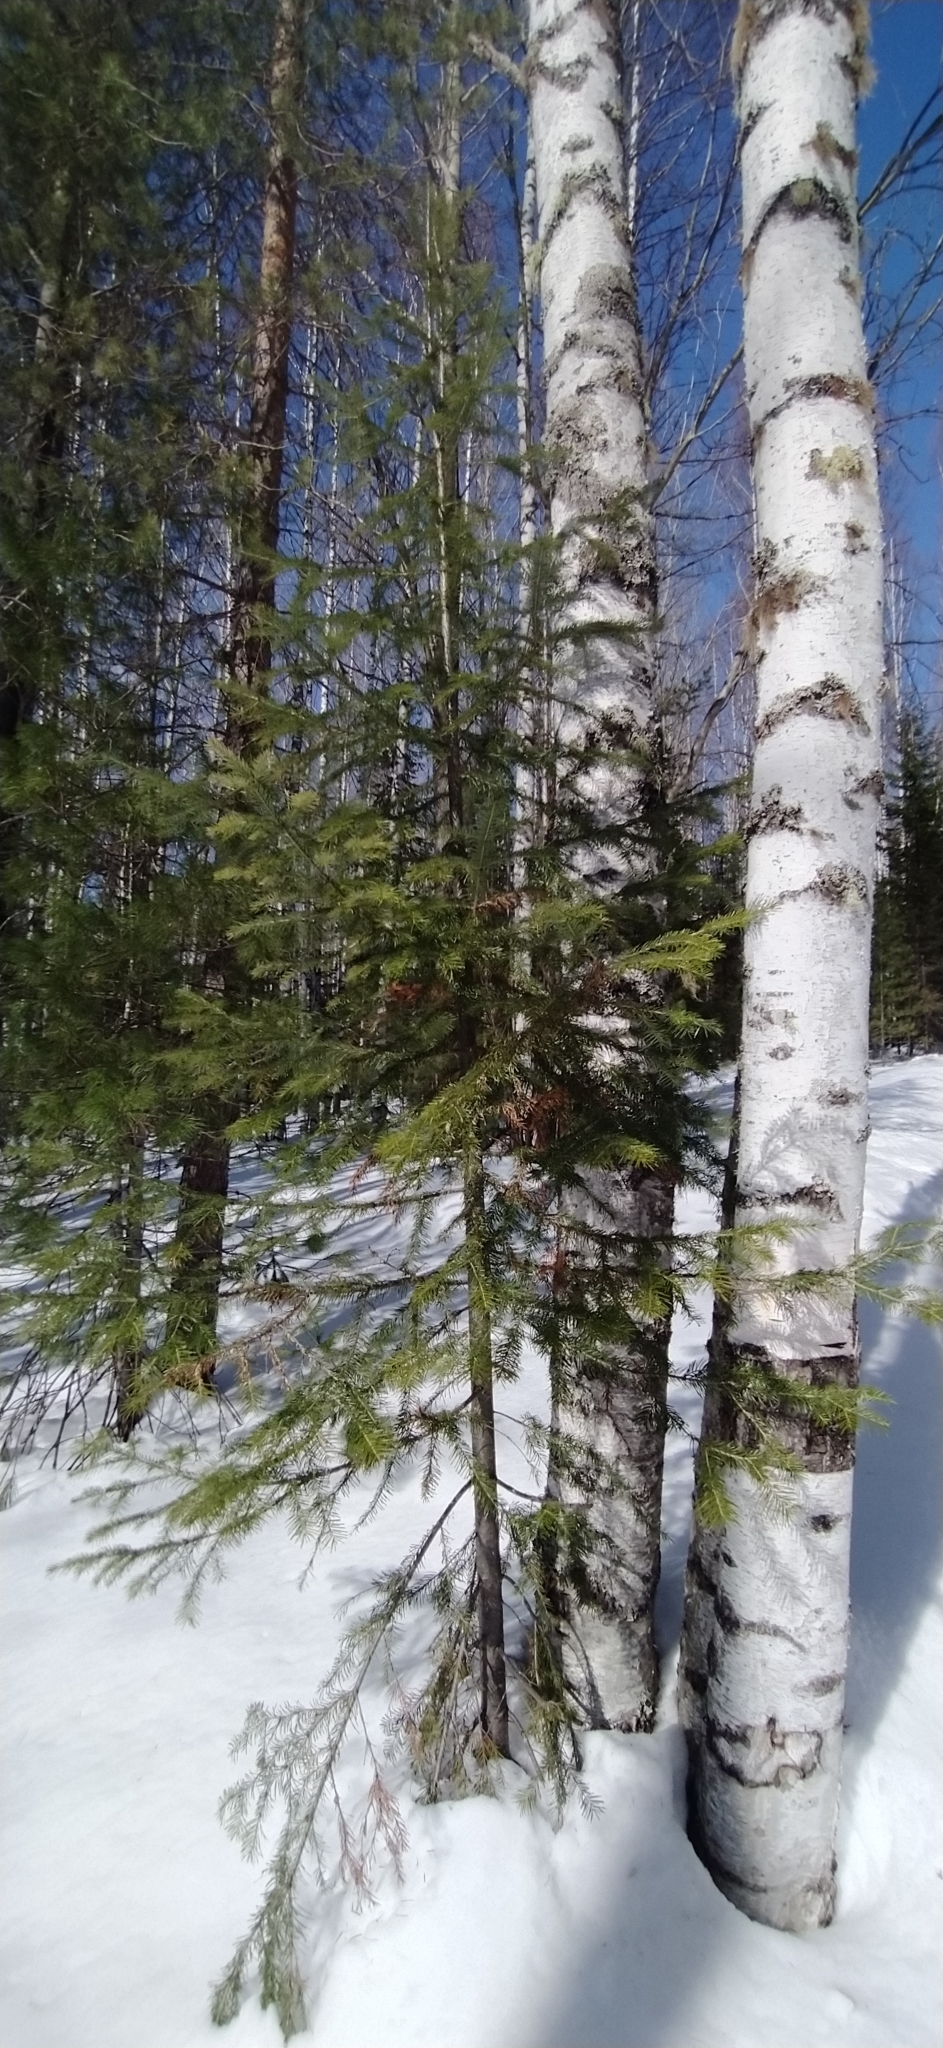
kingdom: Plantae
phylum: Tracheophyta
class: Pinopsida
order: Pinales
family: Pinaceae
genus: Abies
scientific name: Abies sibirica
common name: Siberian fir
